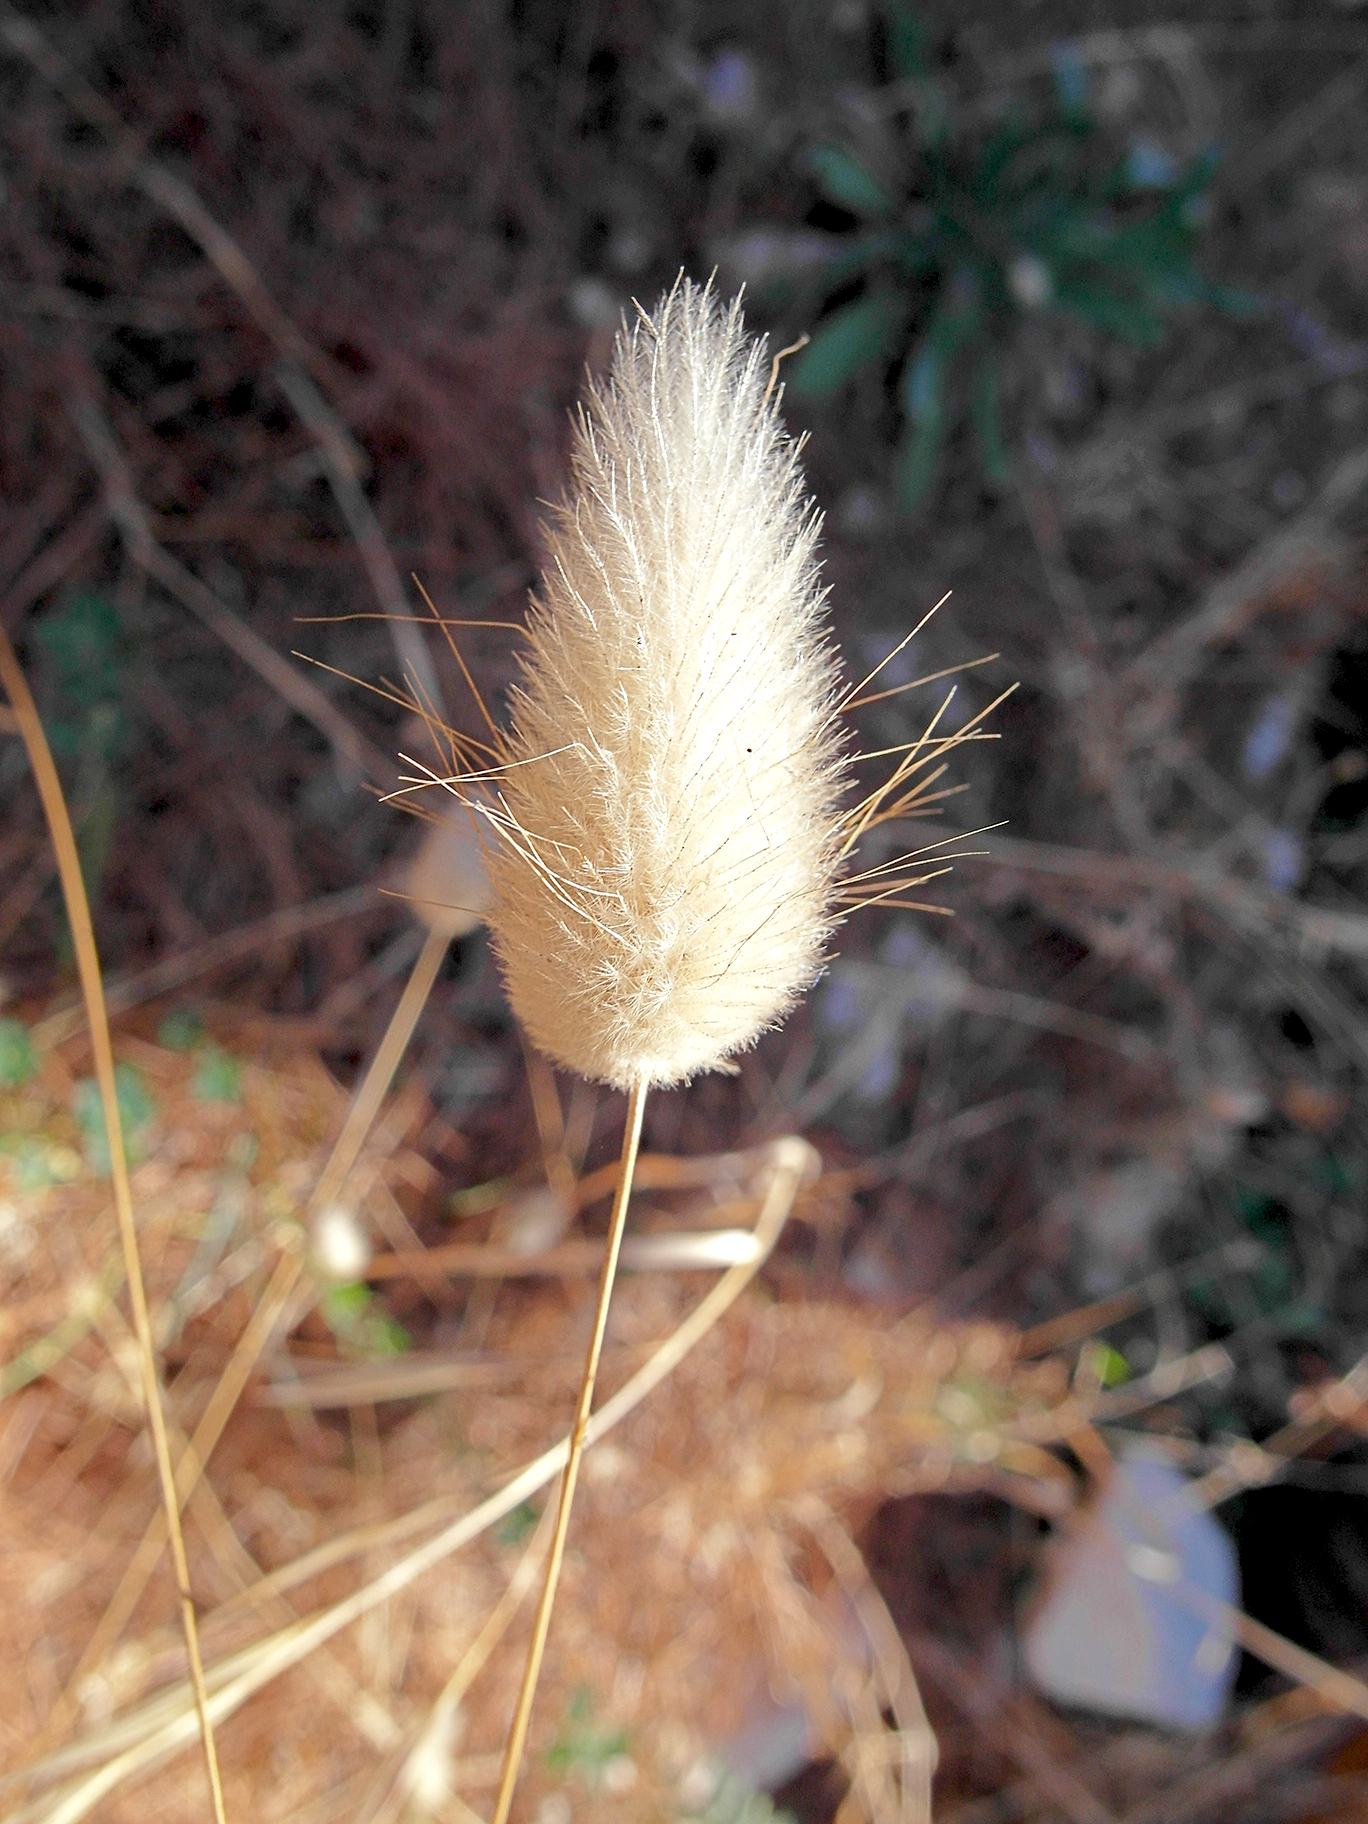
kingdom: Plantae
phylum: Tracheophyta
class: Liliopsida
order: Poales
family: Poaceae
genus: Lagurus
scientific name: Lagurus ovatus
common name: Hare's-tail
